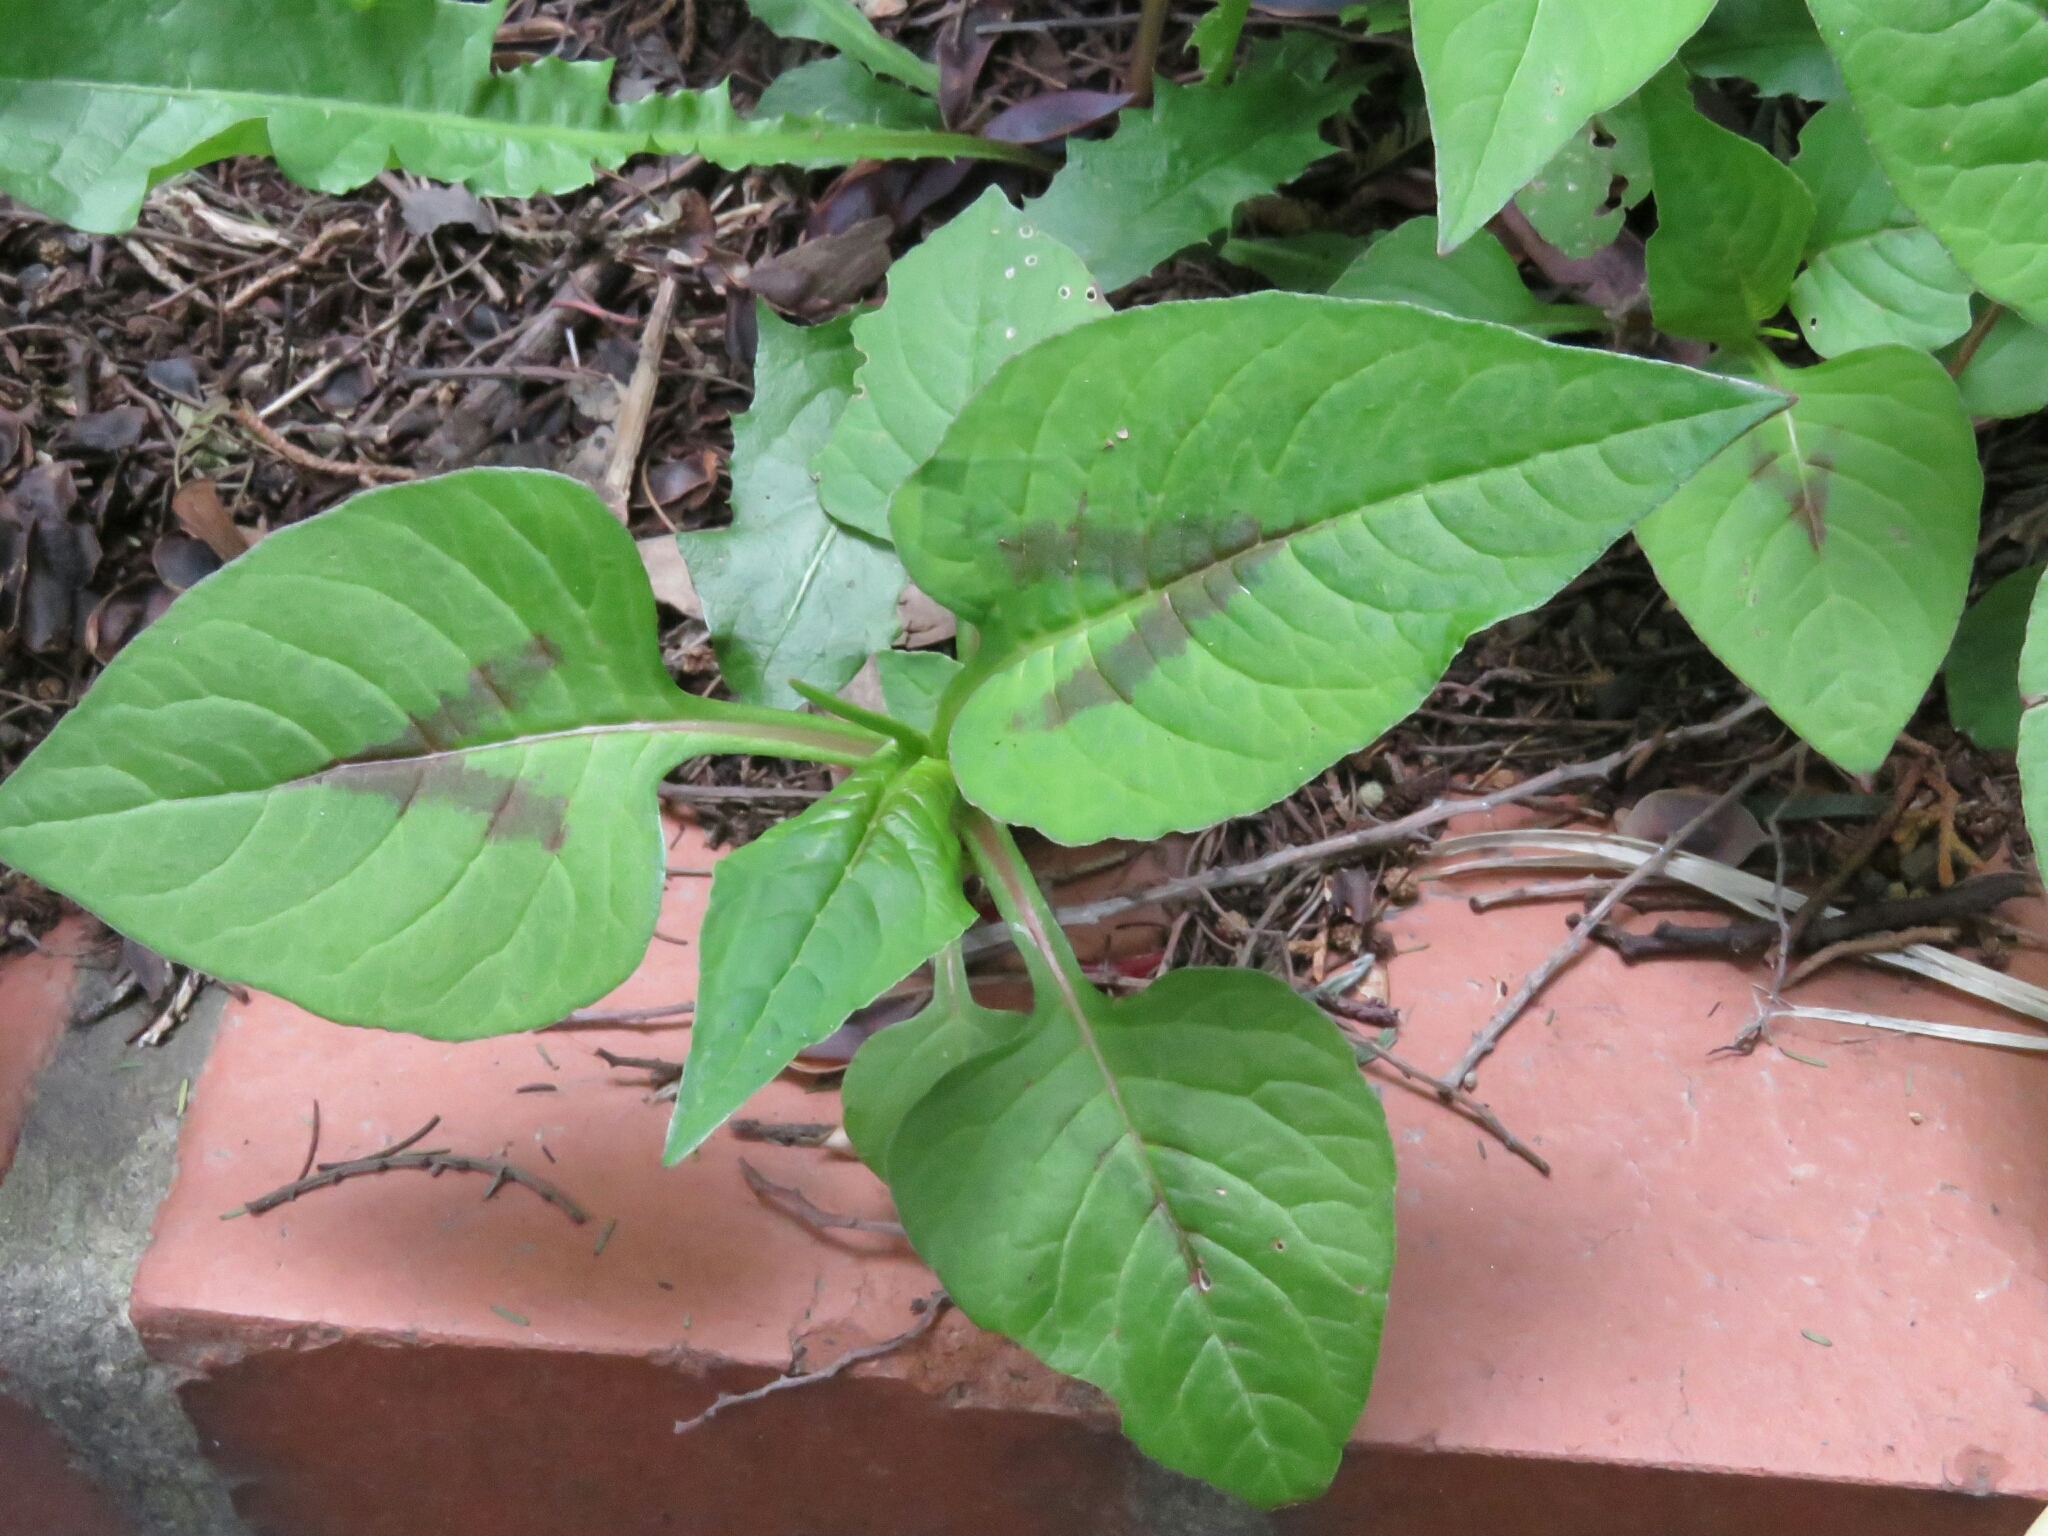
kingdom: Plantae
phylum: Tracheophyta
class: Magnoliopsida
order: Caryophyllales
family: Polygonaceae
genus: Persicaria
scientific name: Persicaria nepalensis
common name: Nepal persicaria
